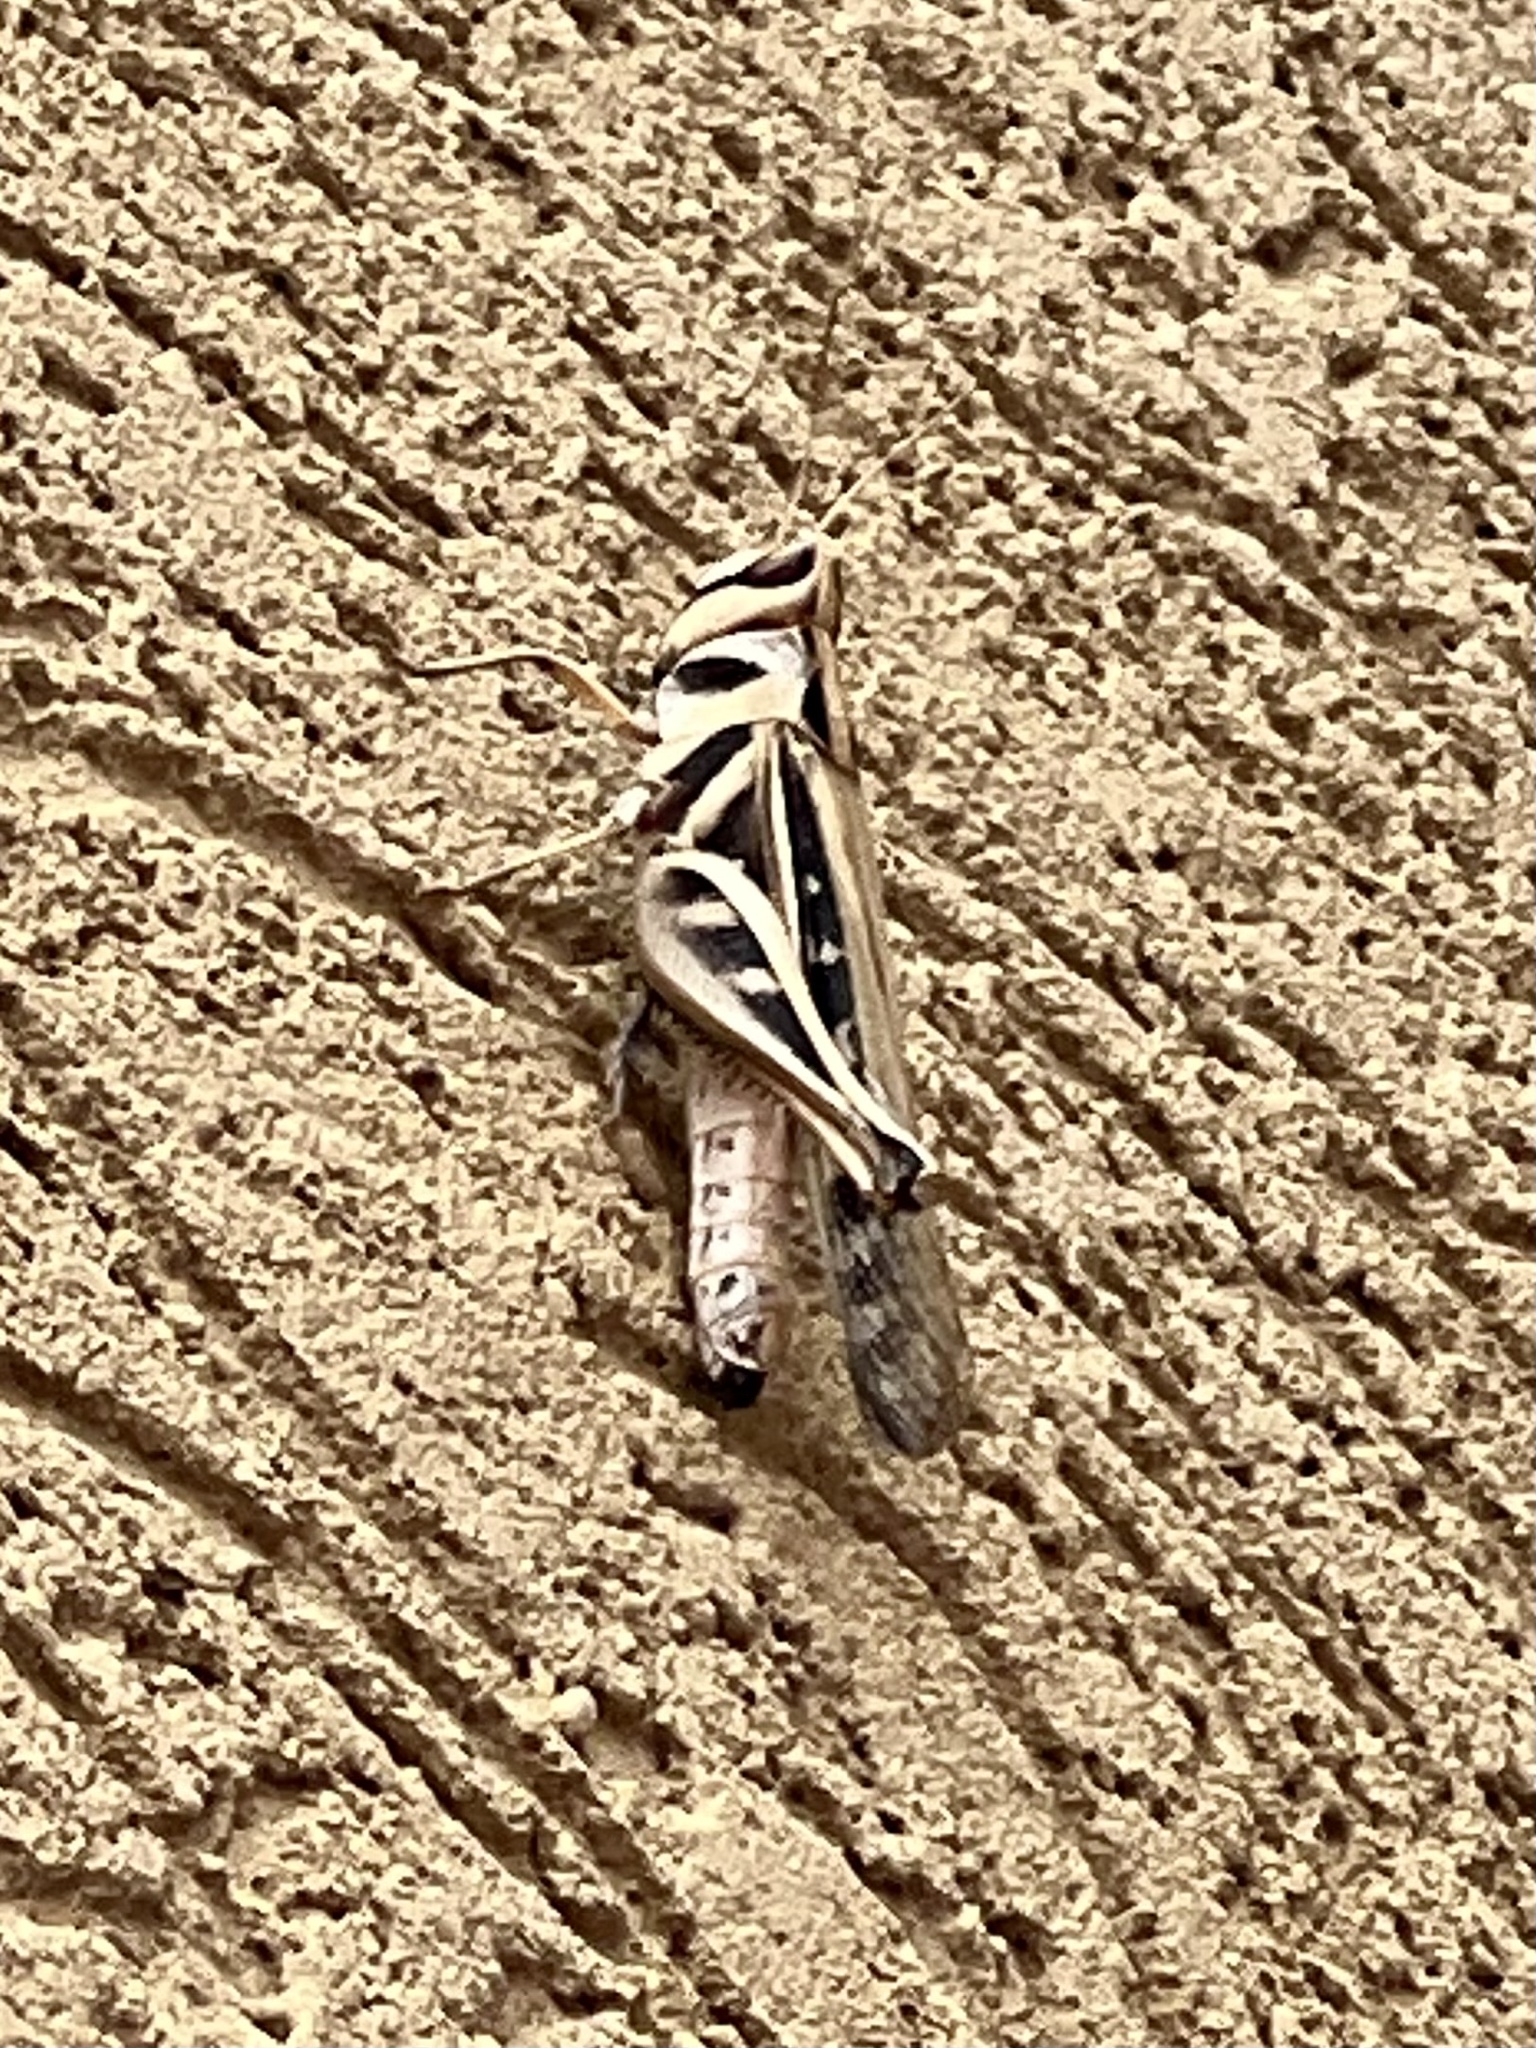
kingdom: Animalia
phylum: Arthropoda
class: Insecta
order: Orthoptera
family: Acrididae
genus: Rhammatocerus
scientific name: Rhammatocerus viatorius
